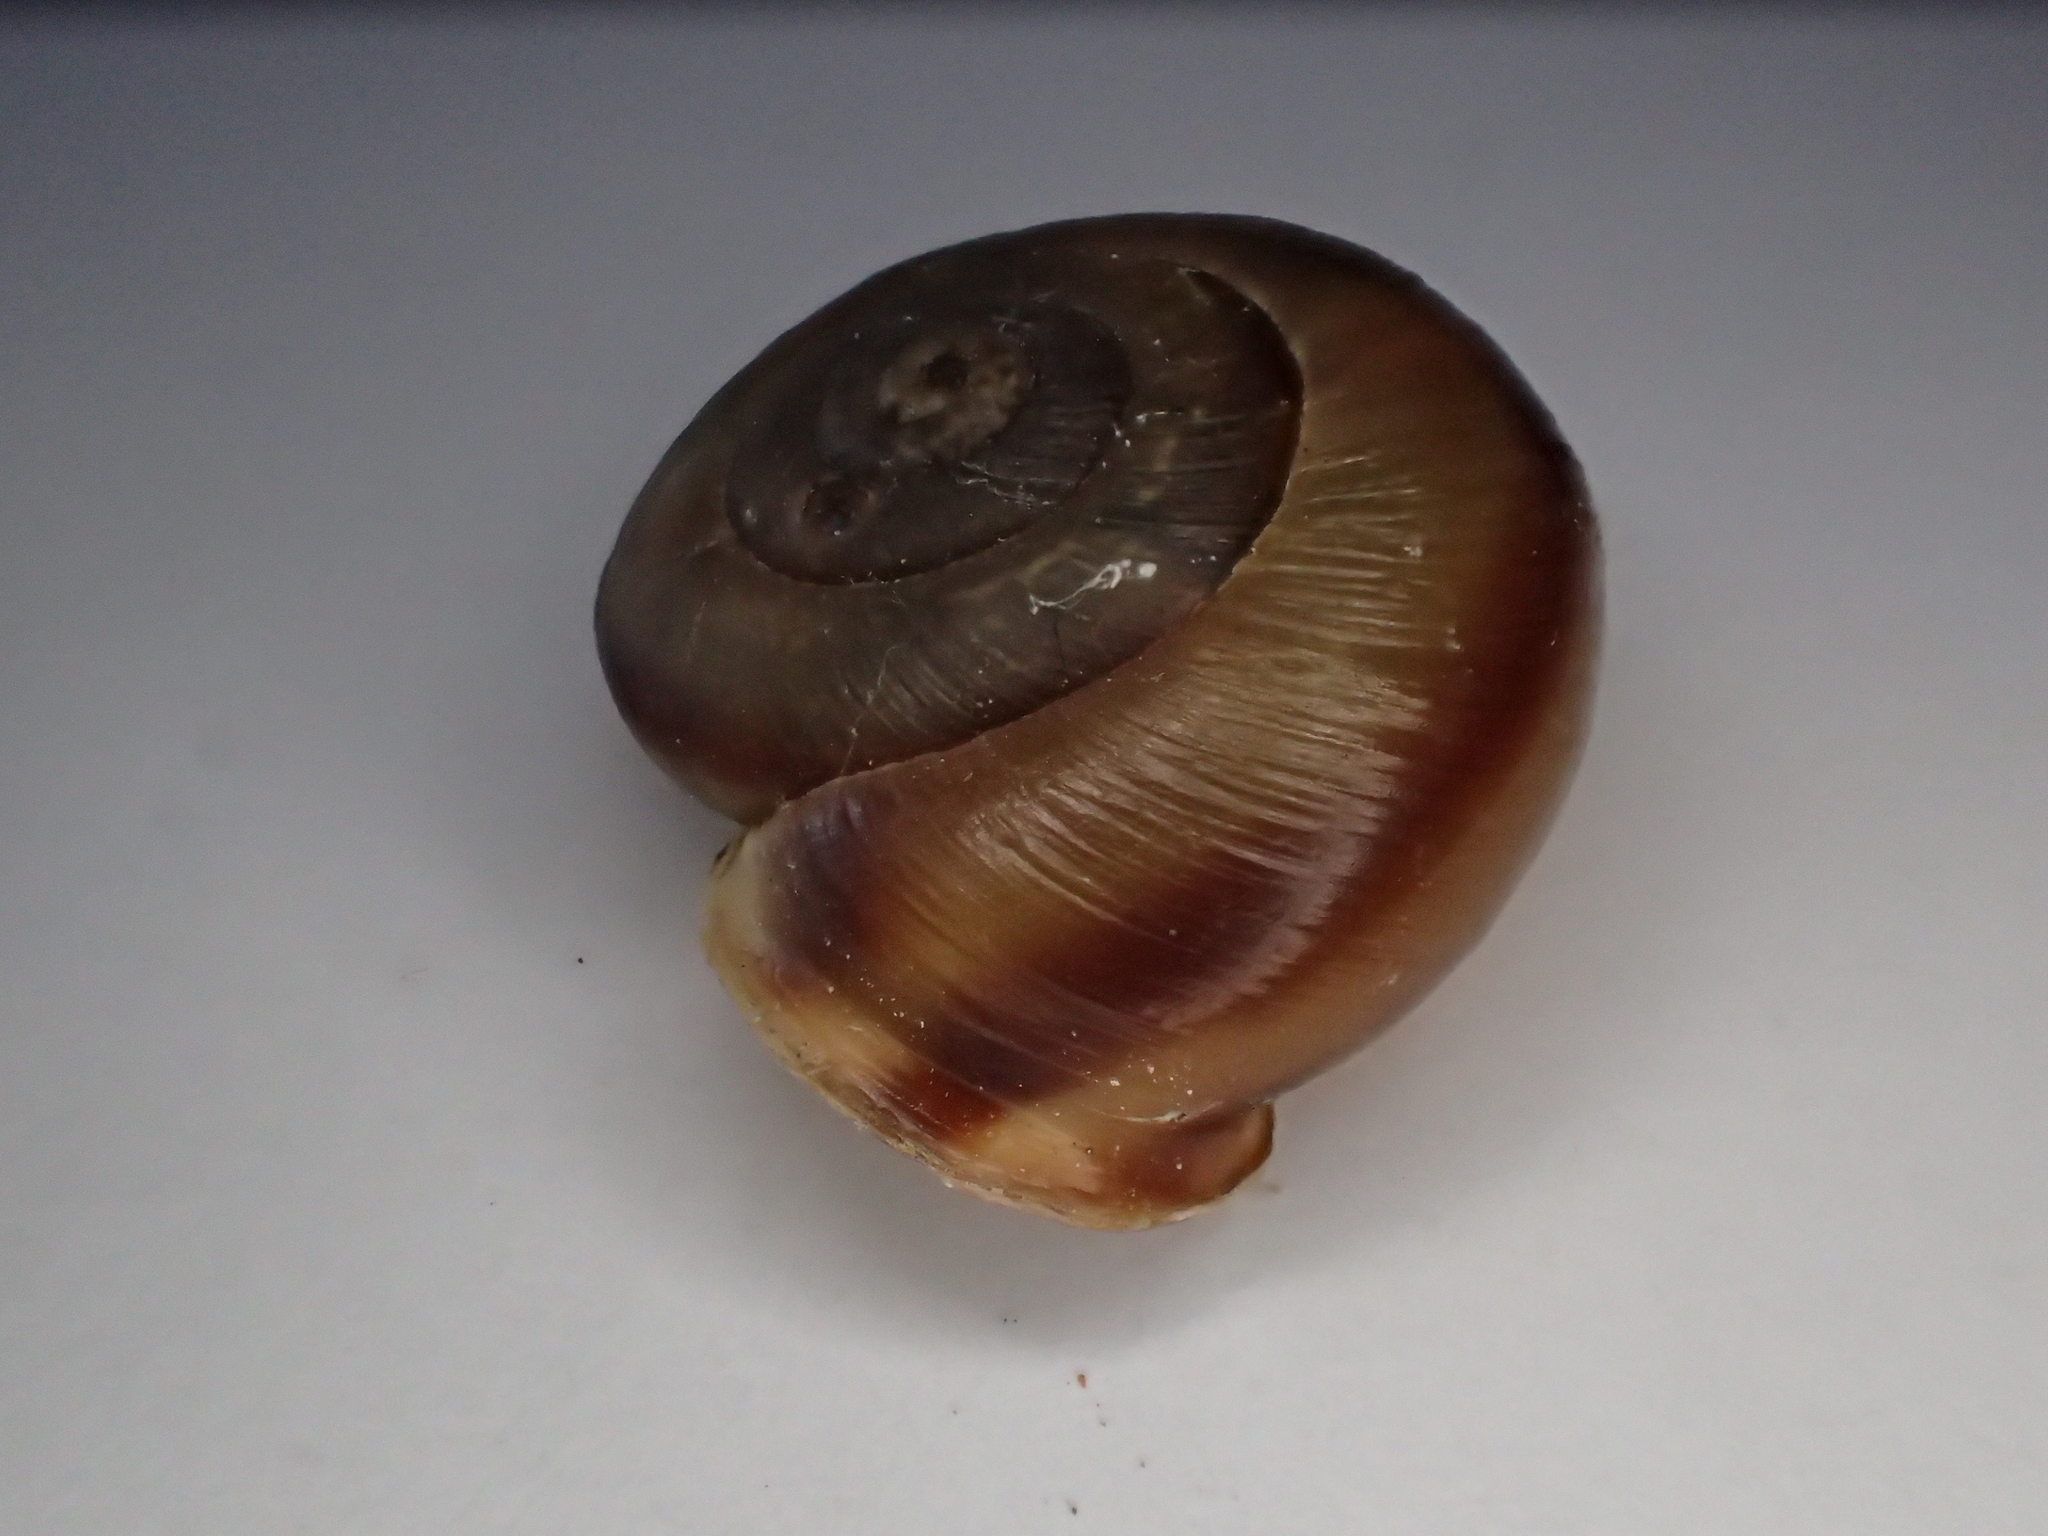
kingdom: Animalia
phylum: Mollusca
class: Gastropoda
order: Stylommatophora
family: Helicidae
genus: Corneola
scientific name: Corneola squamatina
